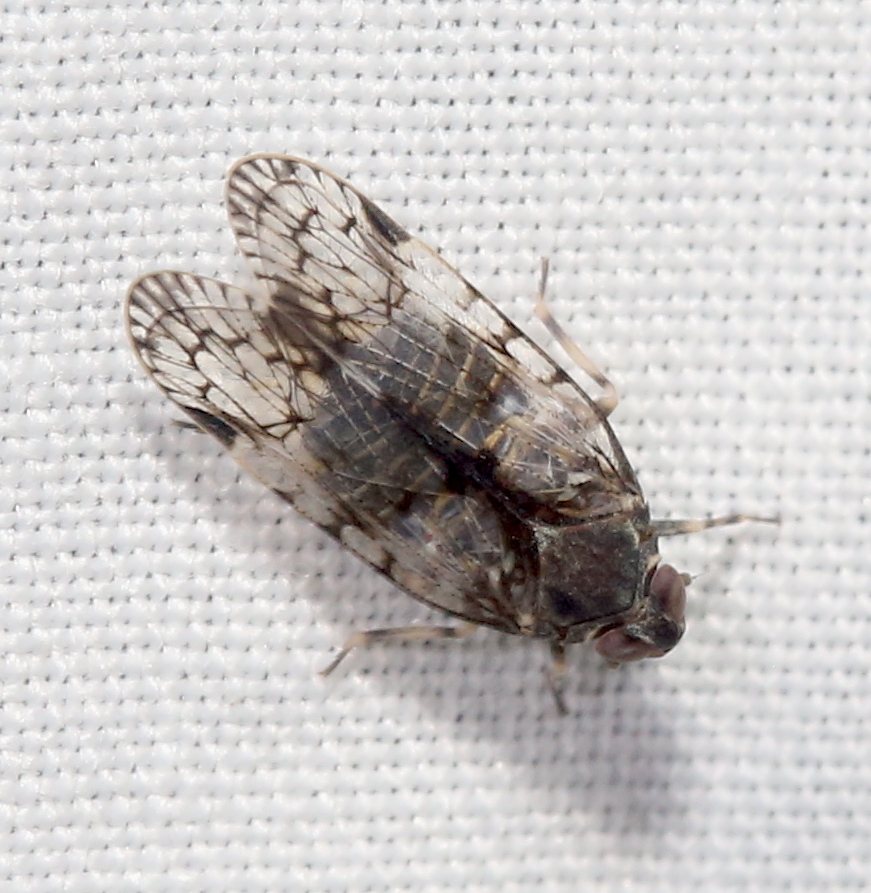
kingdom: Animalia
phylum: Arthropoda
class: Insecta
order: Hemiptera
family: Cixiidae
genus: Melanoliarus
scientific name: Melanoliarus placitus
